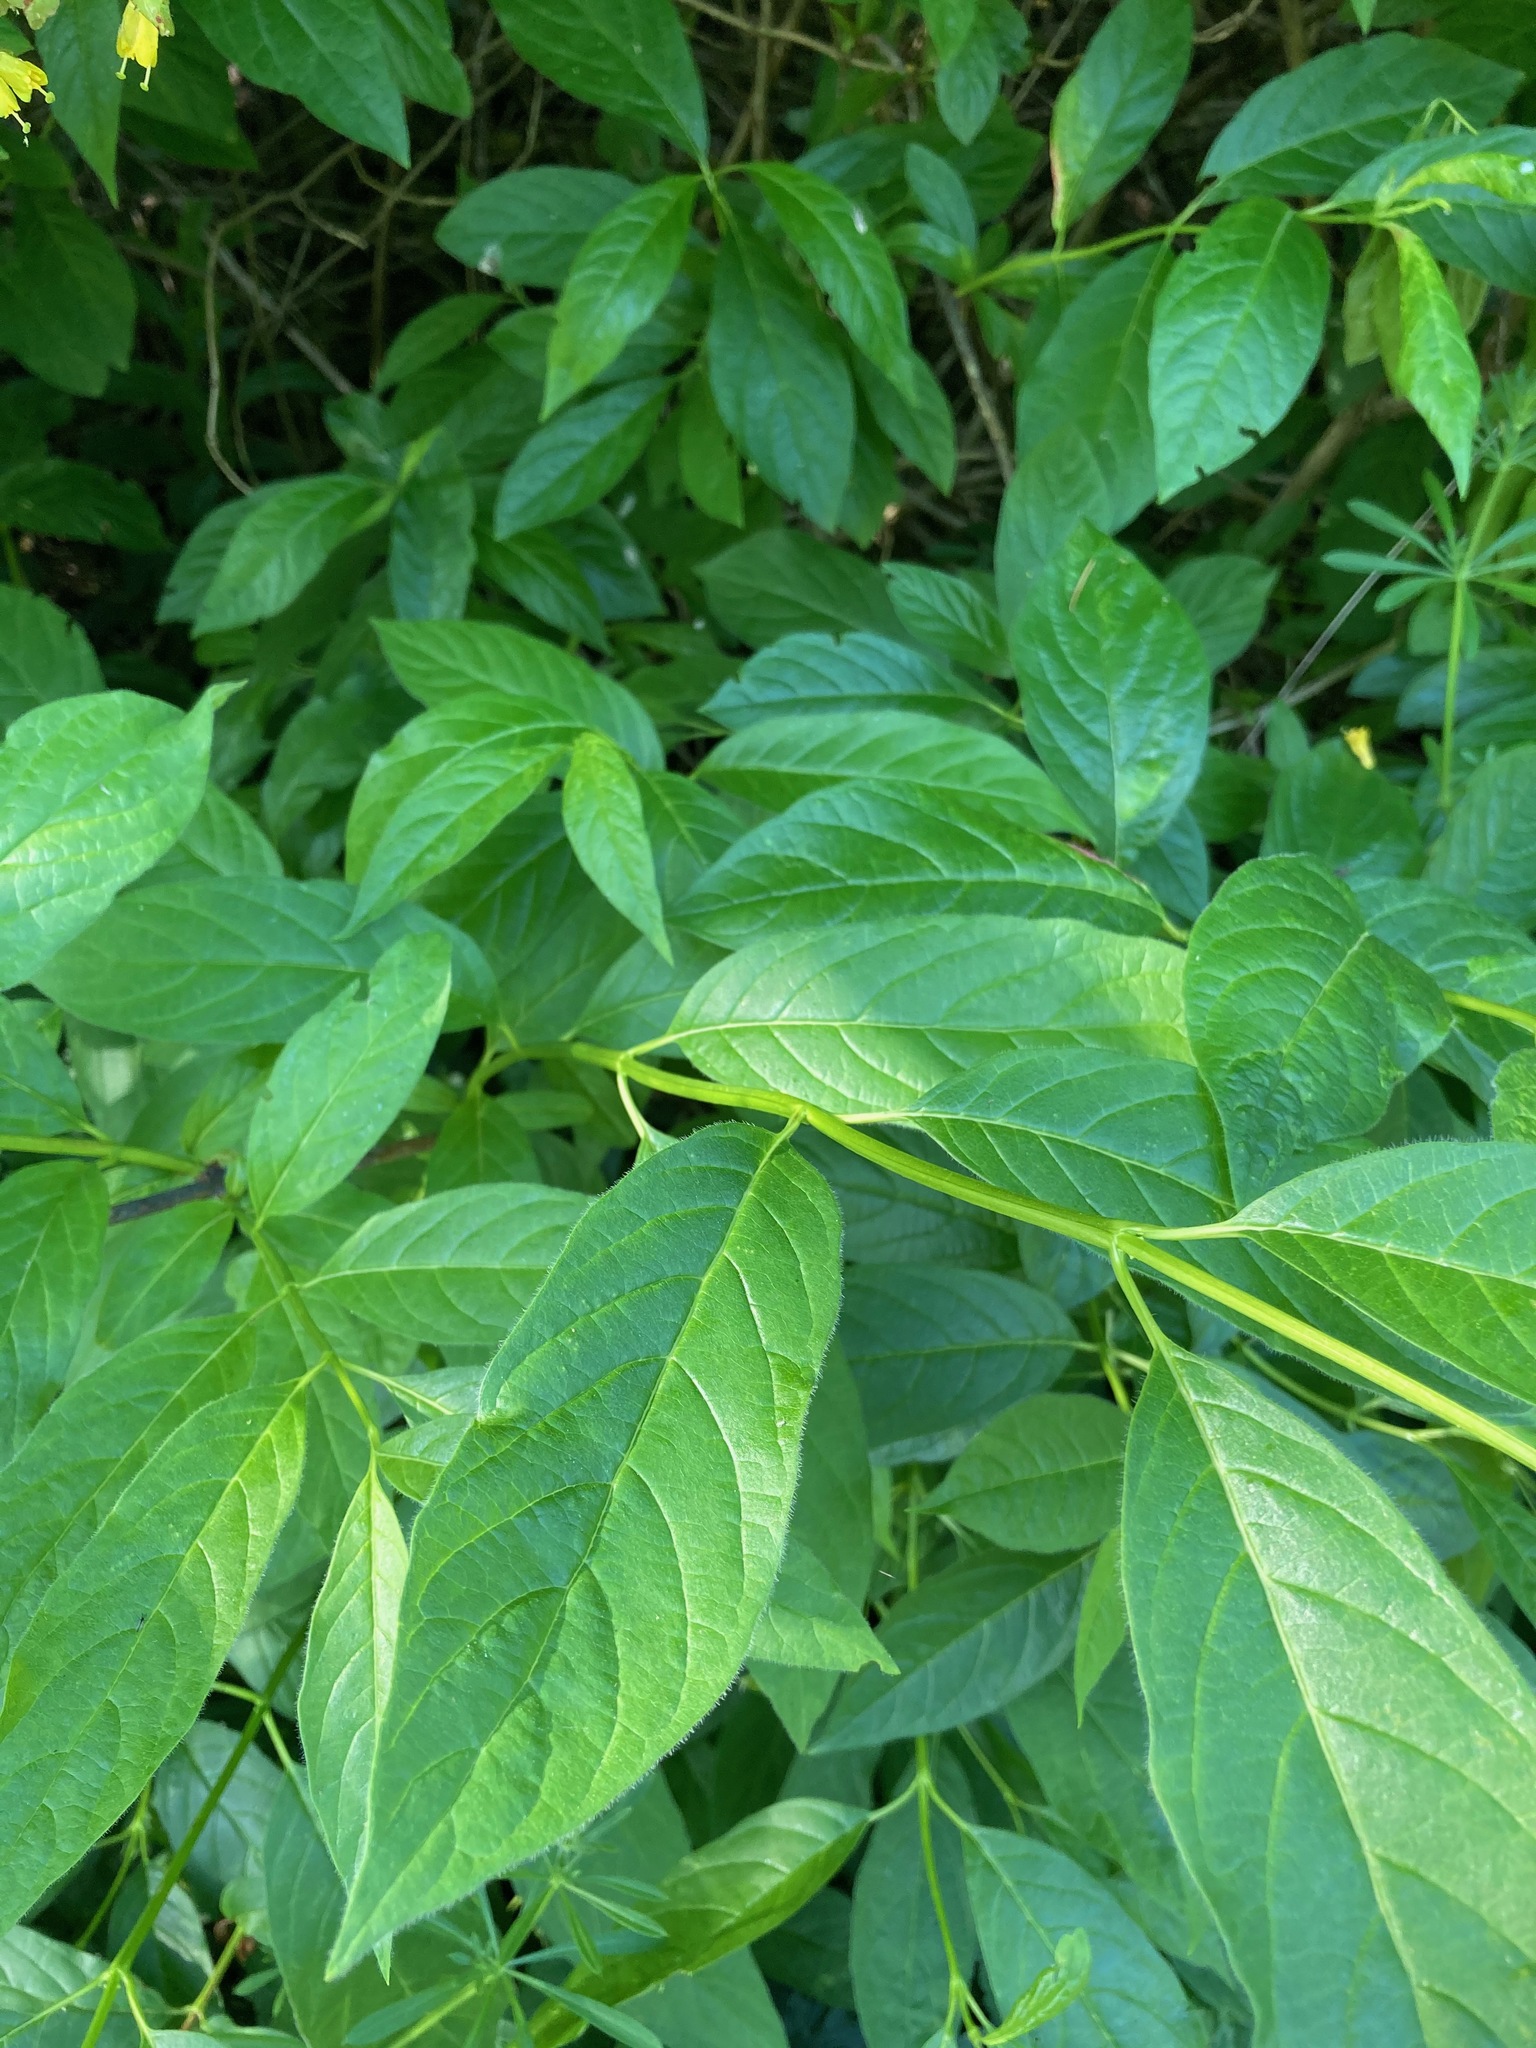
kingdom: Plantae
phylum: Tracheophyta
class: Magnoliopsida
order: Dipsacales
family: Caprifoliaceae
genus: Lonicera
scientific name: Lonicera involucrata
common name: Californian honeysuckle
